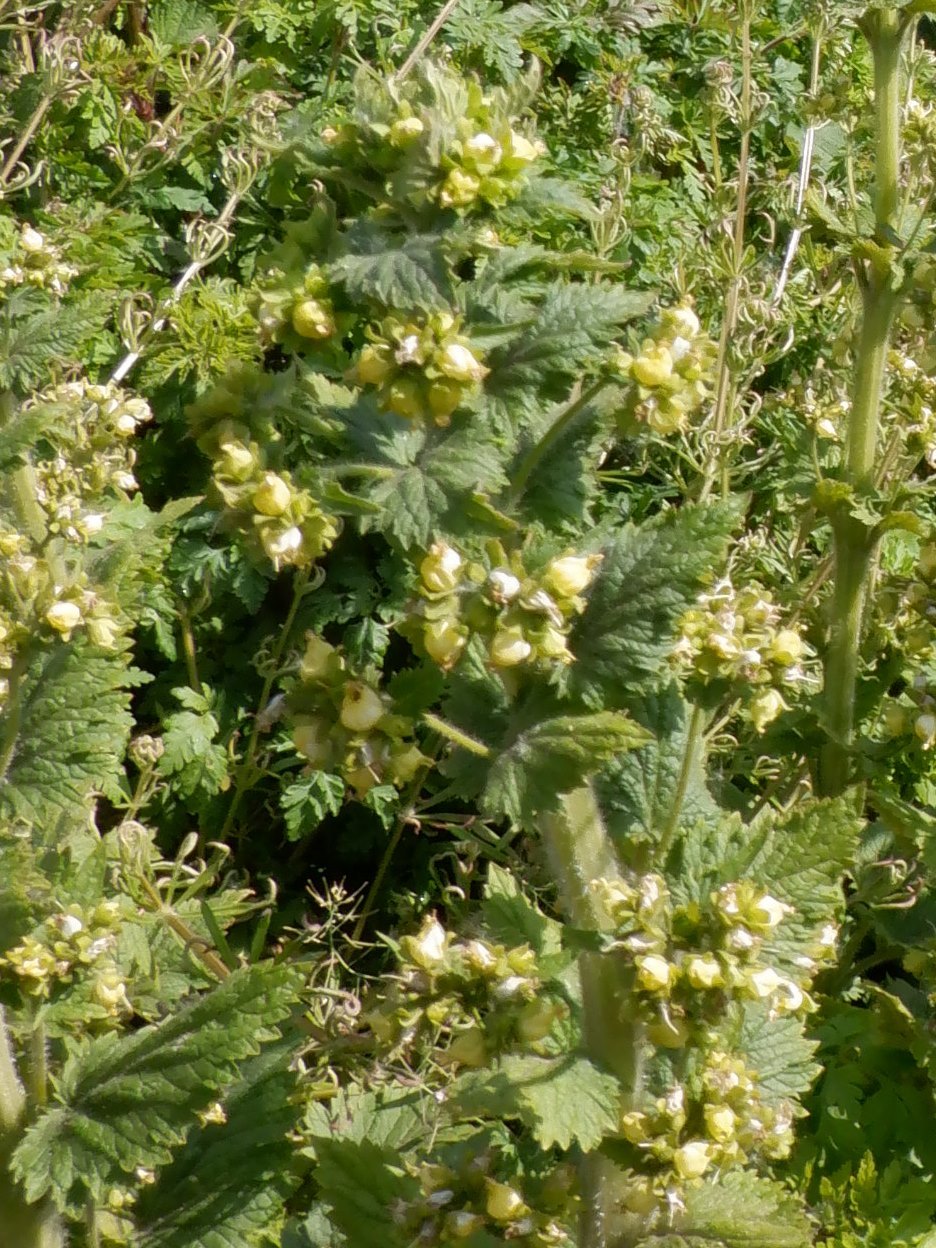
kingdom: Plantae
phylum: Tracheophyta
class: Magnoliopsida
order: Lamiales
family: Scrophulariaceae
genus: Scrophularia
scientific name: Scrophularia vernalis
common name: Yellow figwort
